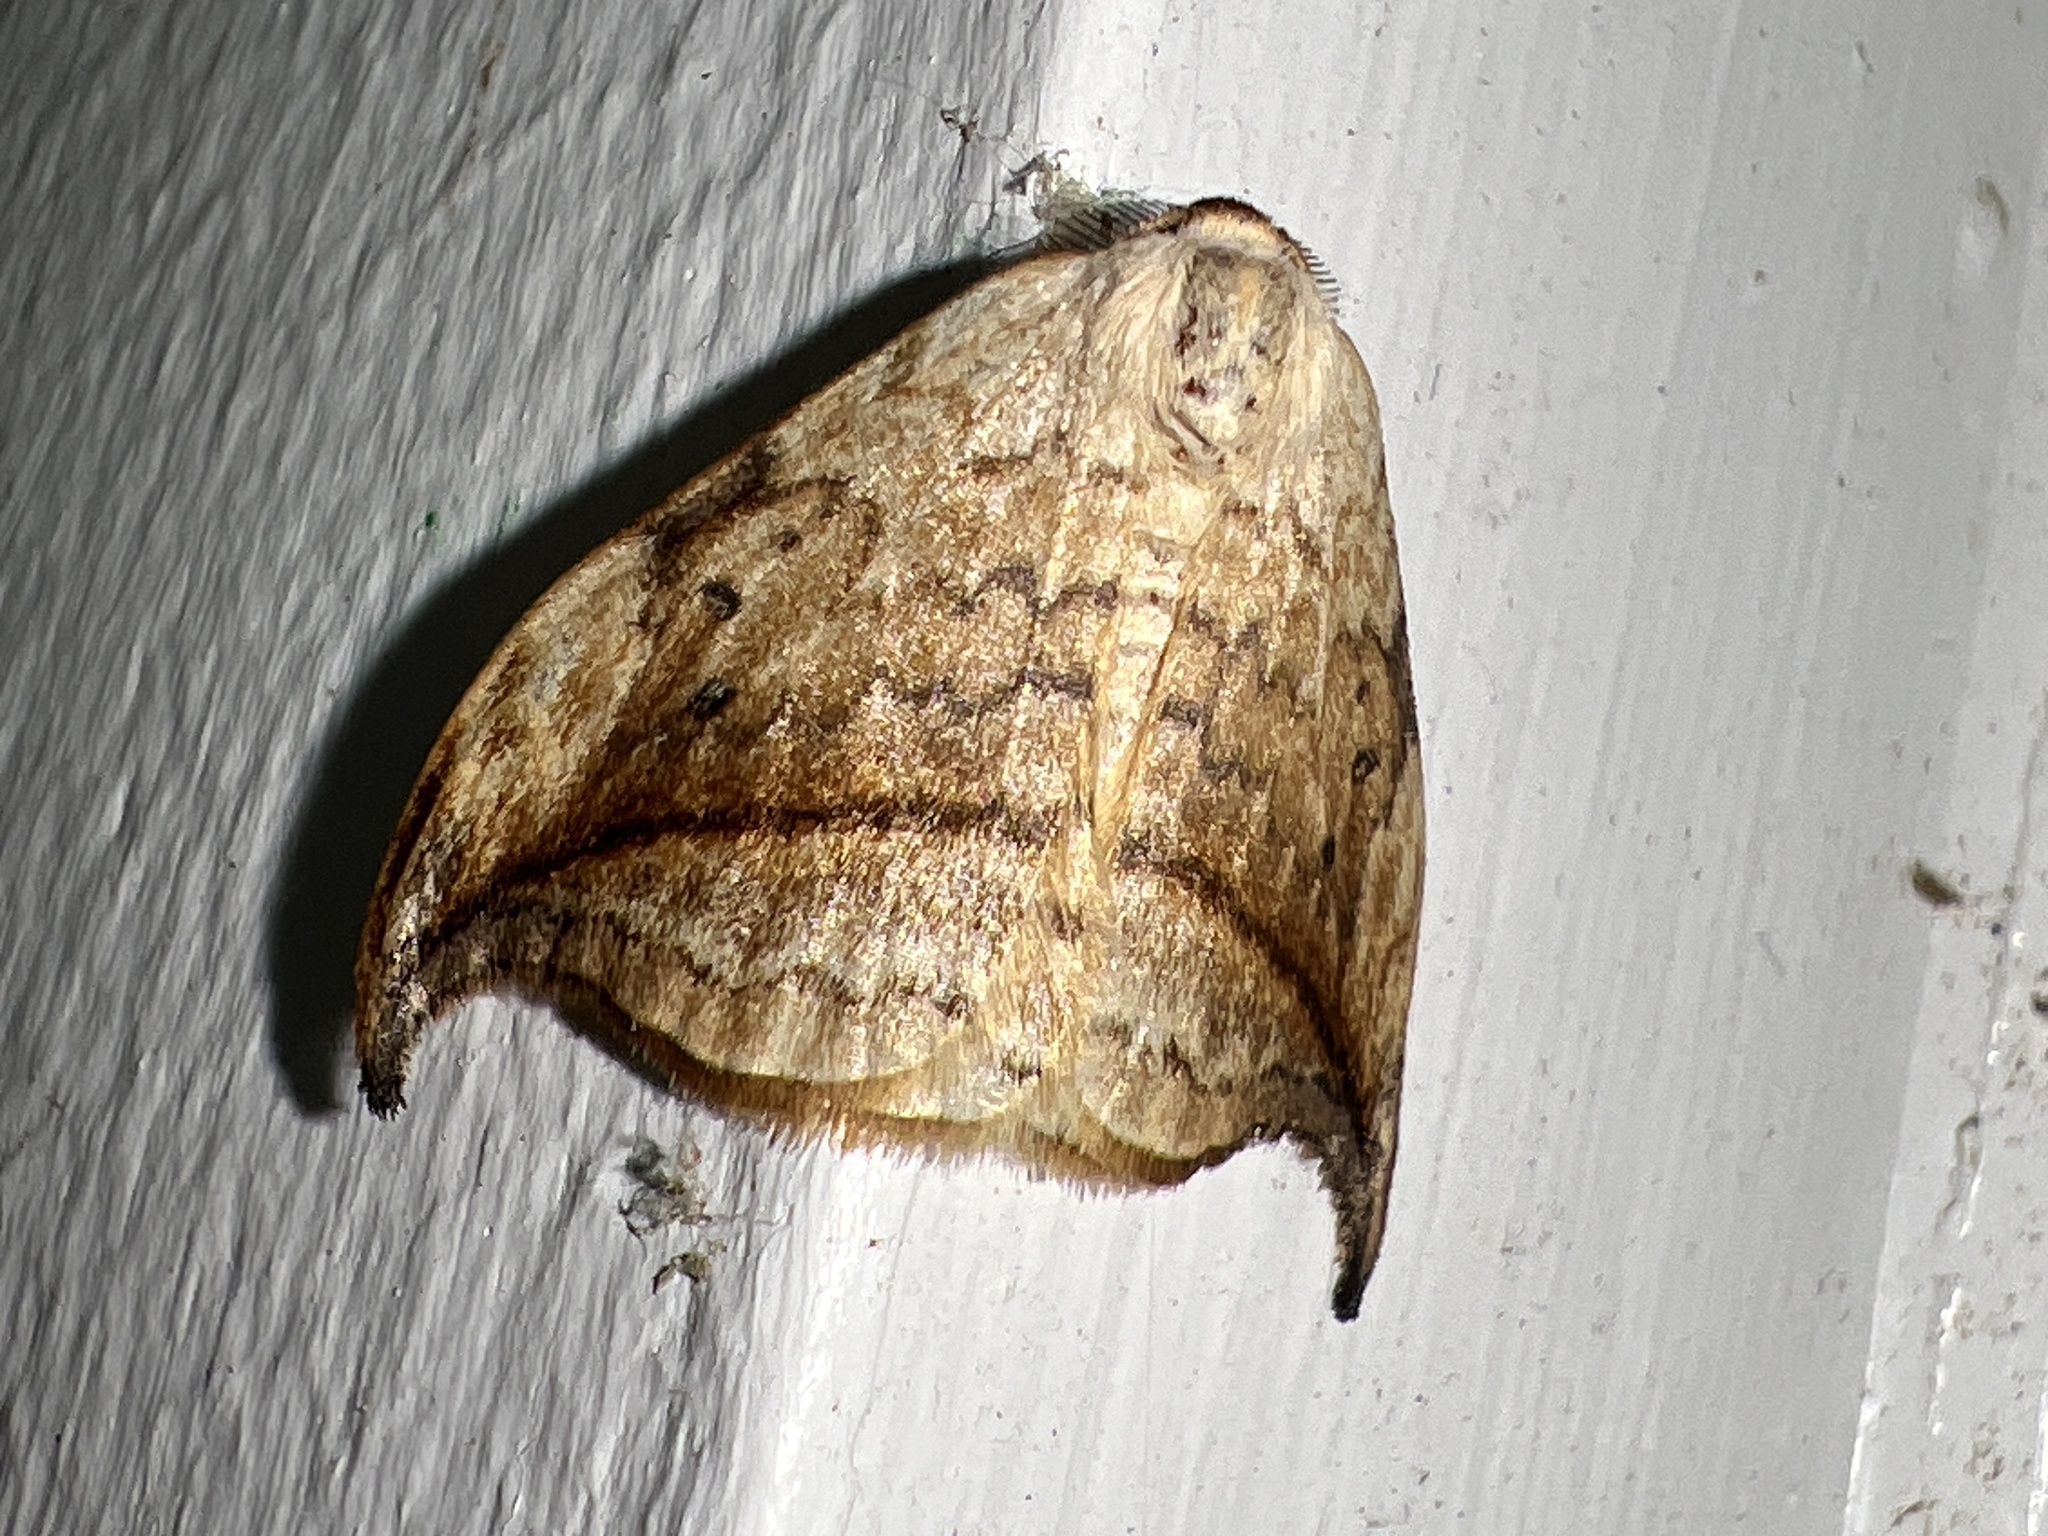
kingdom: Animalia
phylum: Arthropoda
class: Insecta
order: Lepidoptera
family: Drepanidae
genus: Drepana
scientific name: Drepana arcuata
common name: Arched hooktip moth
